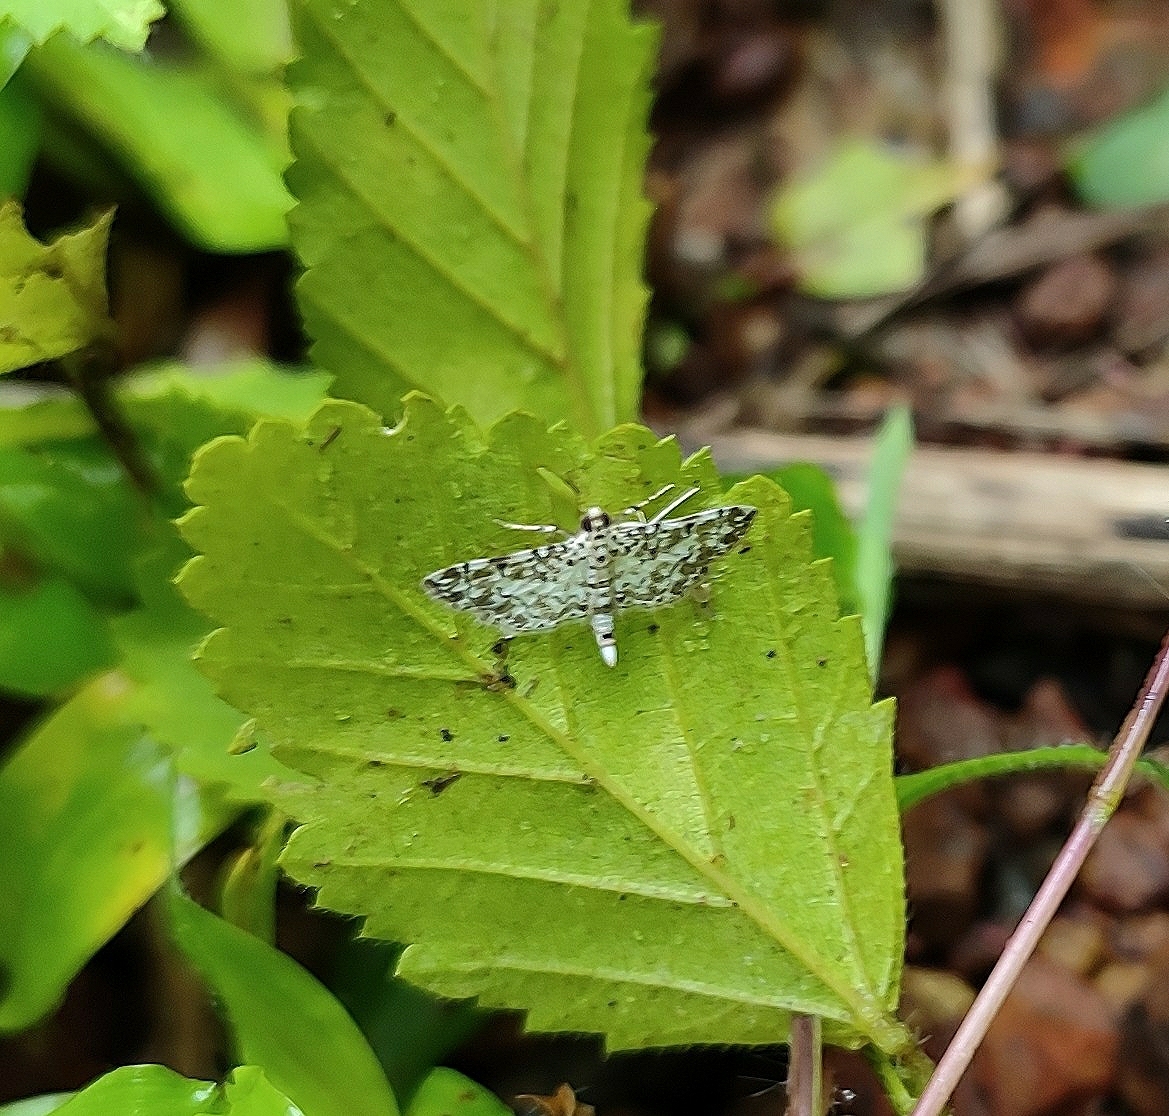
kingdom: Animalia
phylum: Arthropoda
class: Insecta
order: Lepidoptera
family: Crambidae
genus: Metoeca
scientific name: Metoeca foedalis
